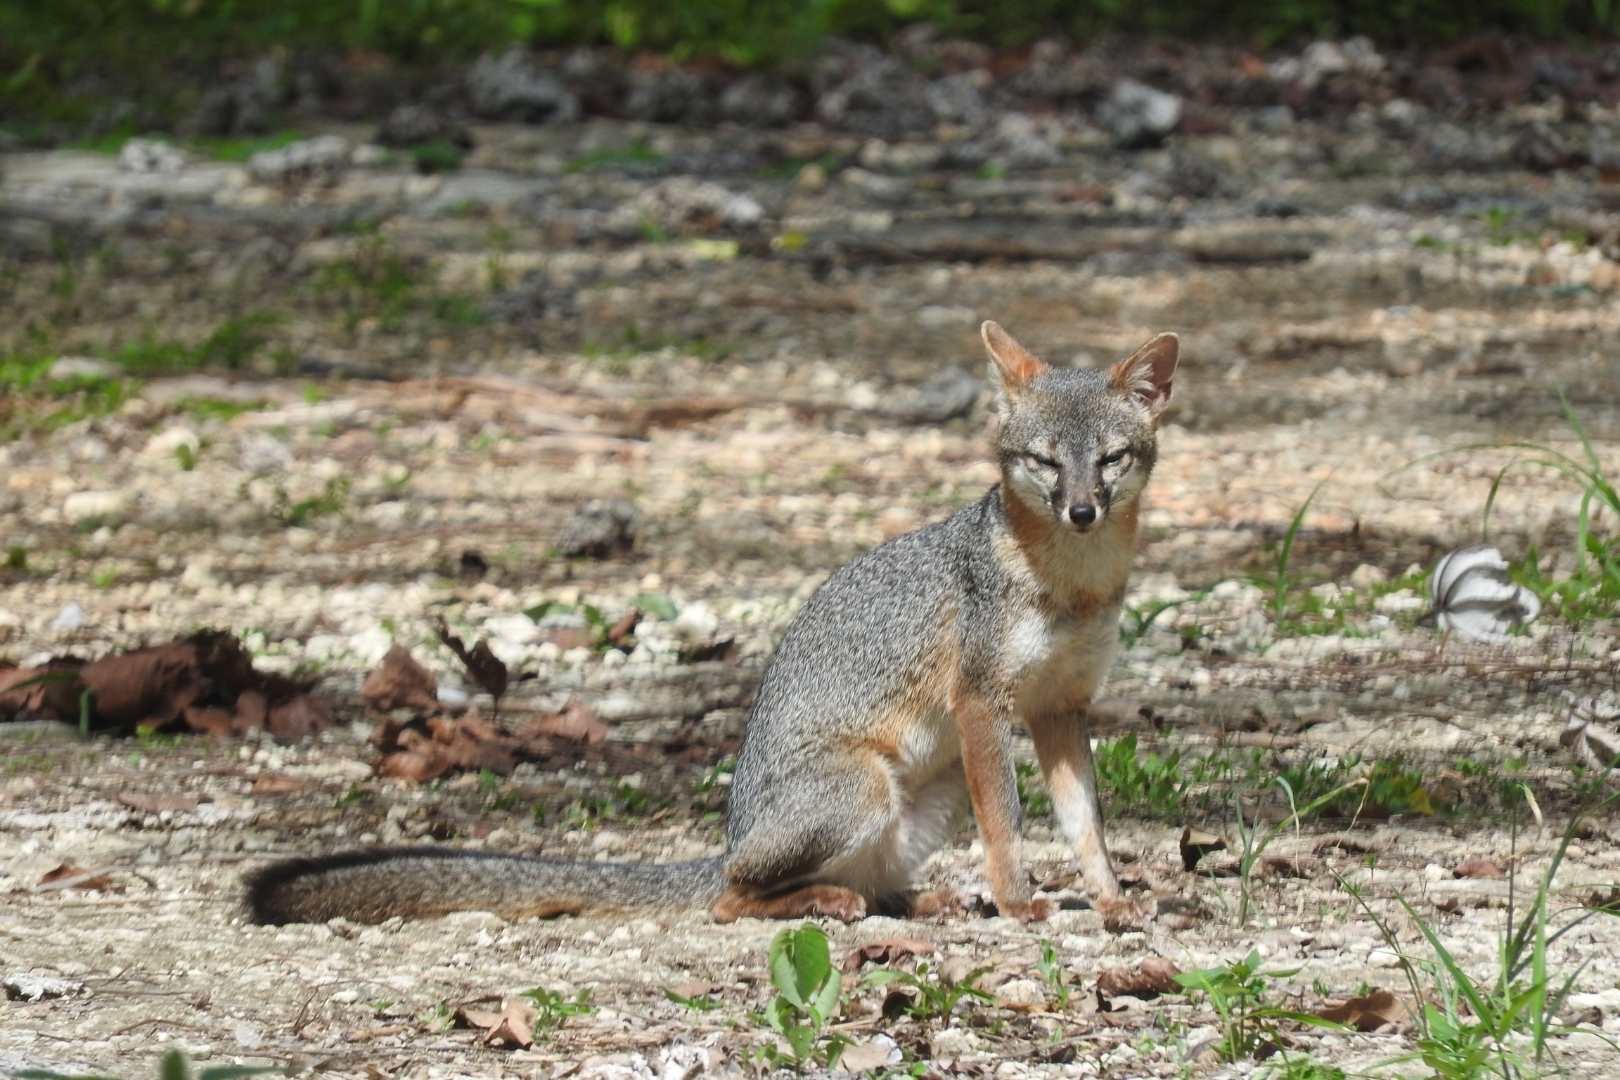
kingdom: Animalia
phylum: Chordata
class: Mammalia
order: Carnivora
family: Canidae
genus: Urocyon
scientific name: Urocyon cinereoargenteus
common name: Gray fox
